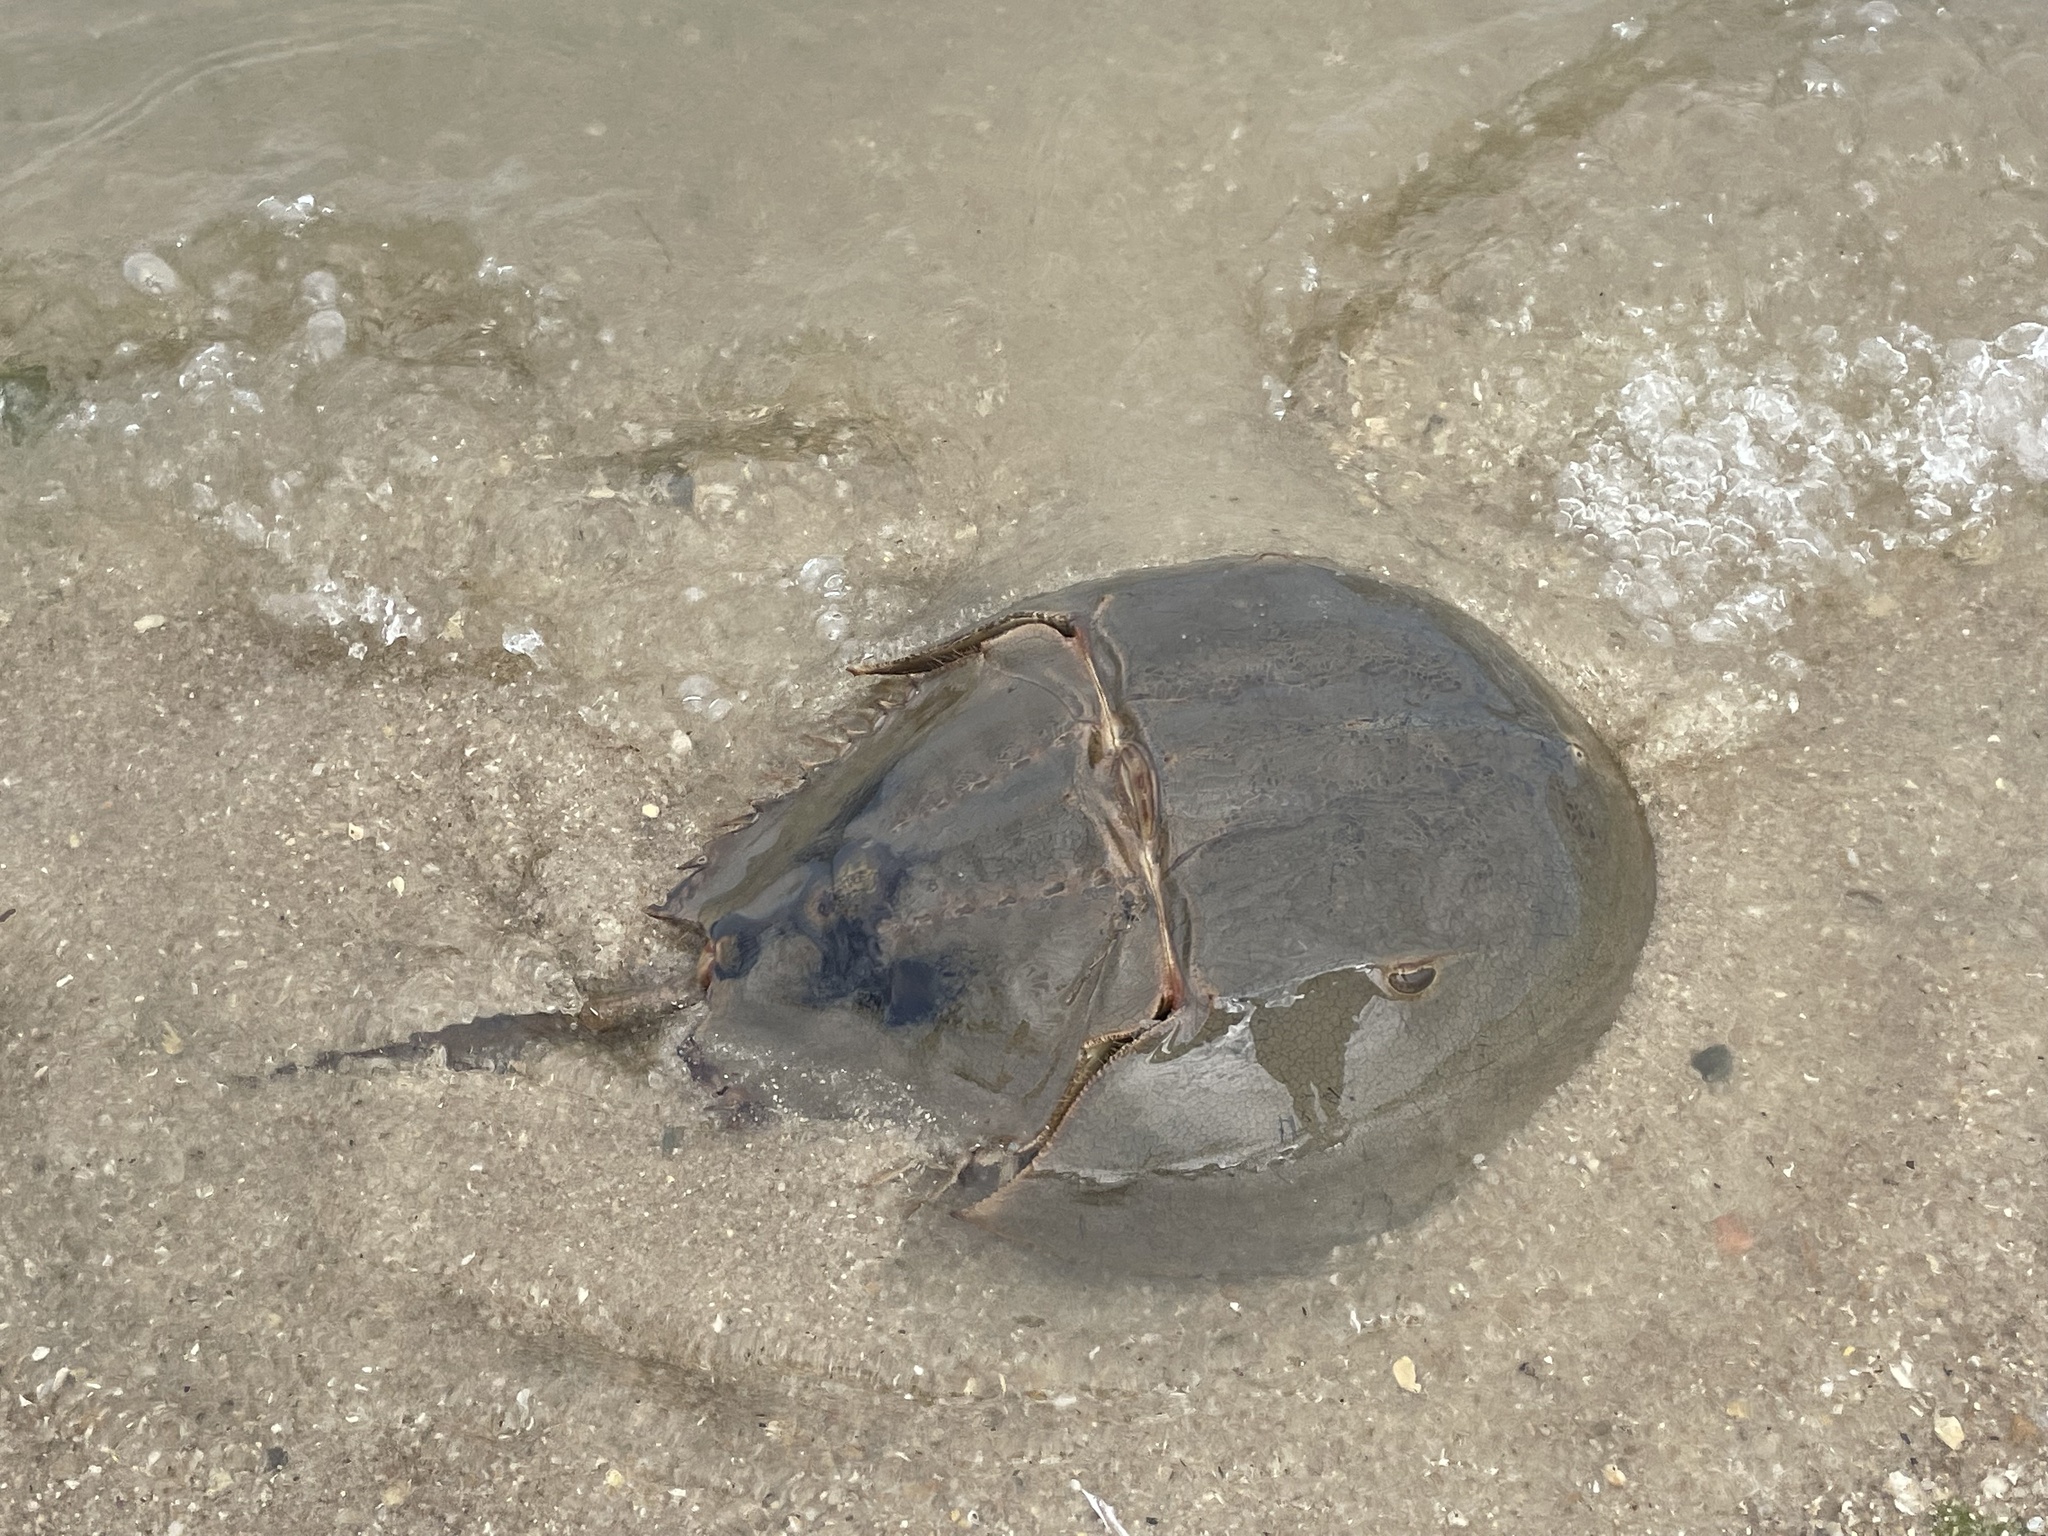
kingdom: Animalia
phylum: Arthropoda
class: Merostomata
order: Xiphosurida
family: Limulidae
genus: Limulus
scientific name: Limulus polyphemus
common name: Horseshoe crab
